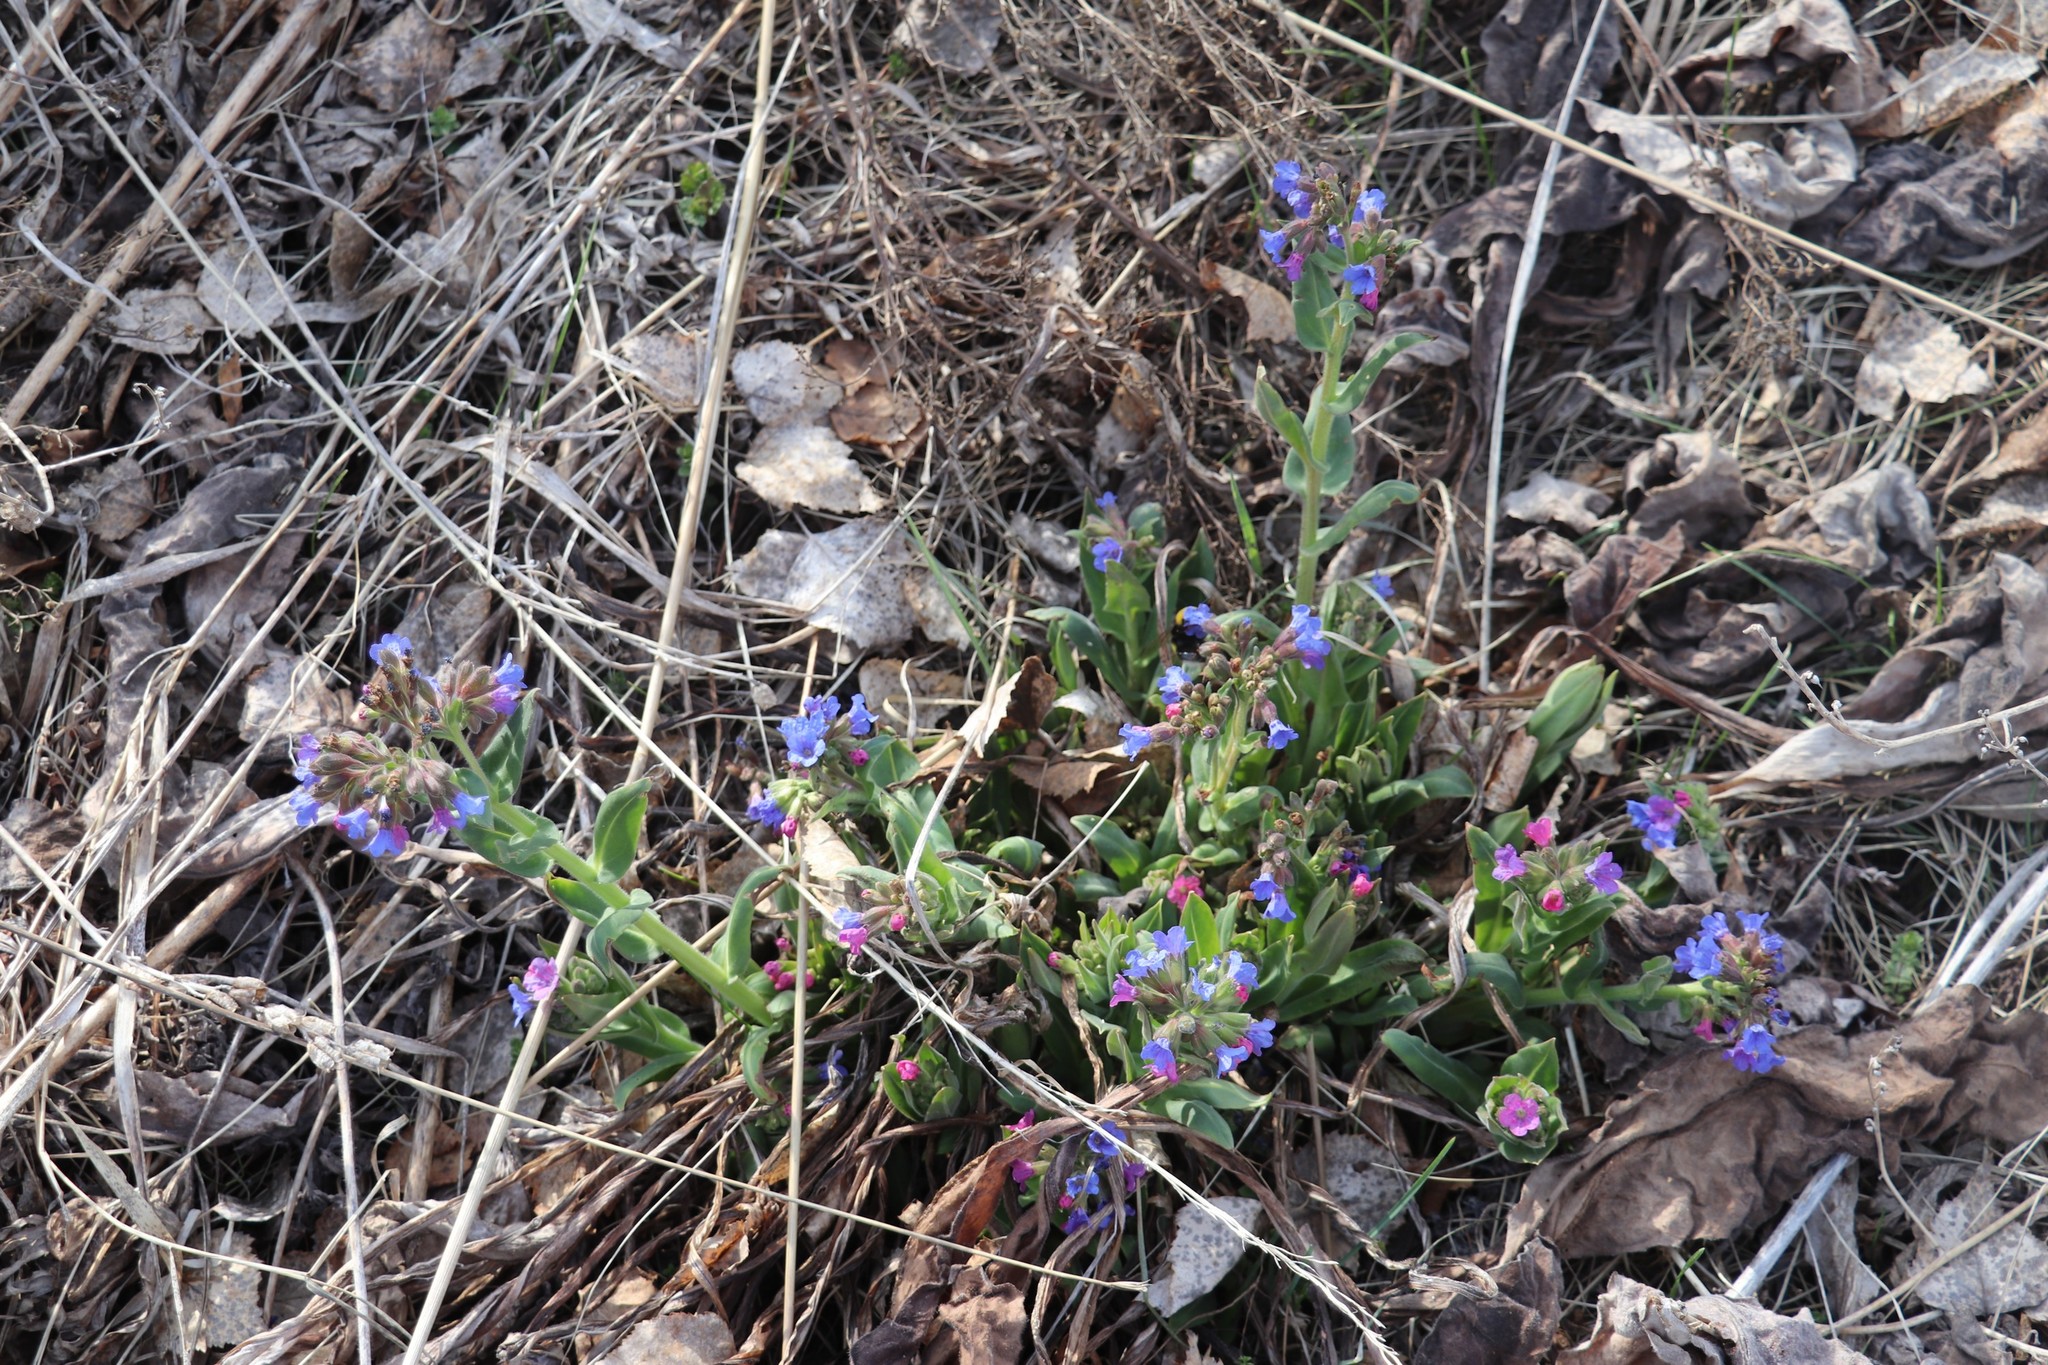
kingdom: Plantae
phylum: Tracheophyta
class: Magnoliopsida
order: Boraginales
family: Boraginaceae
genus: Pulmonaria
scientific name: Pulmonaria mollis
